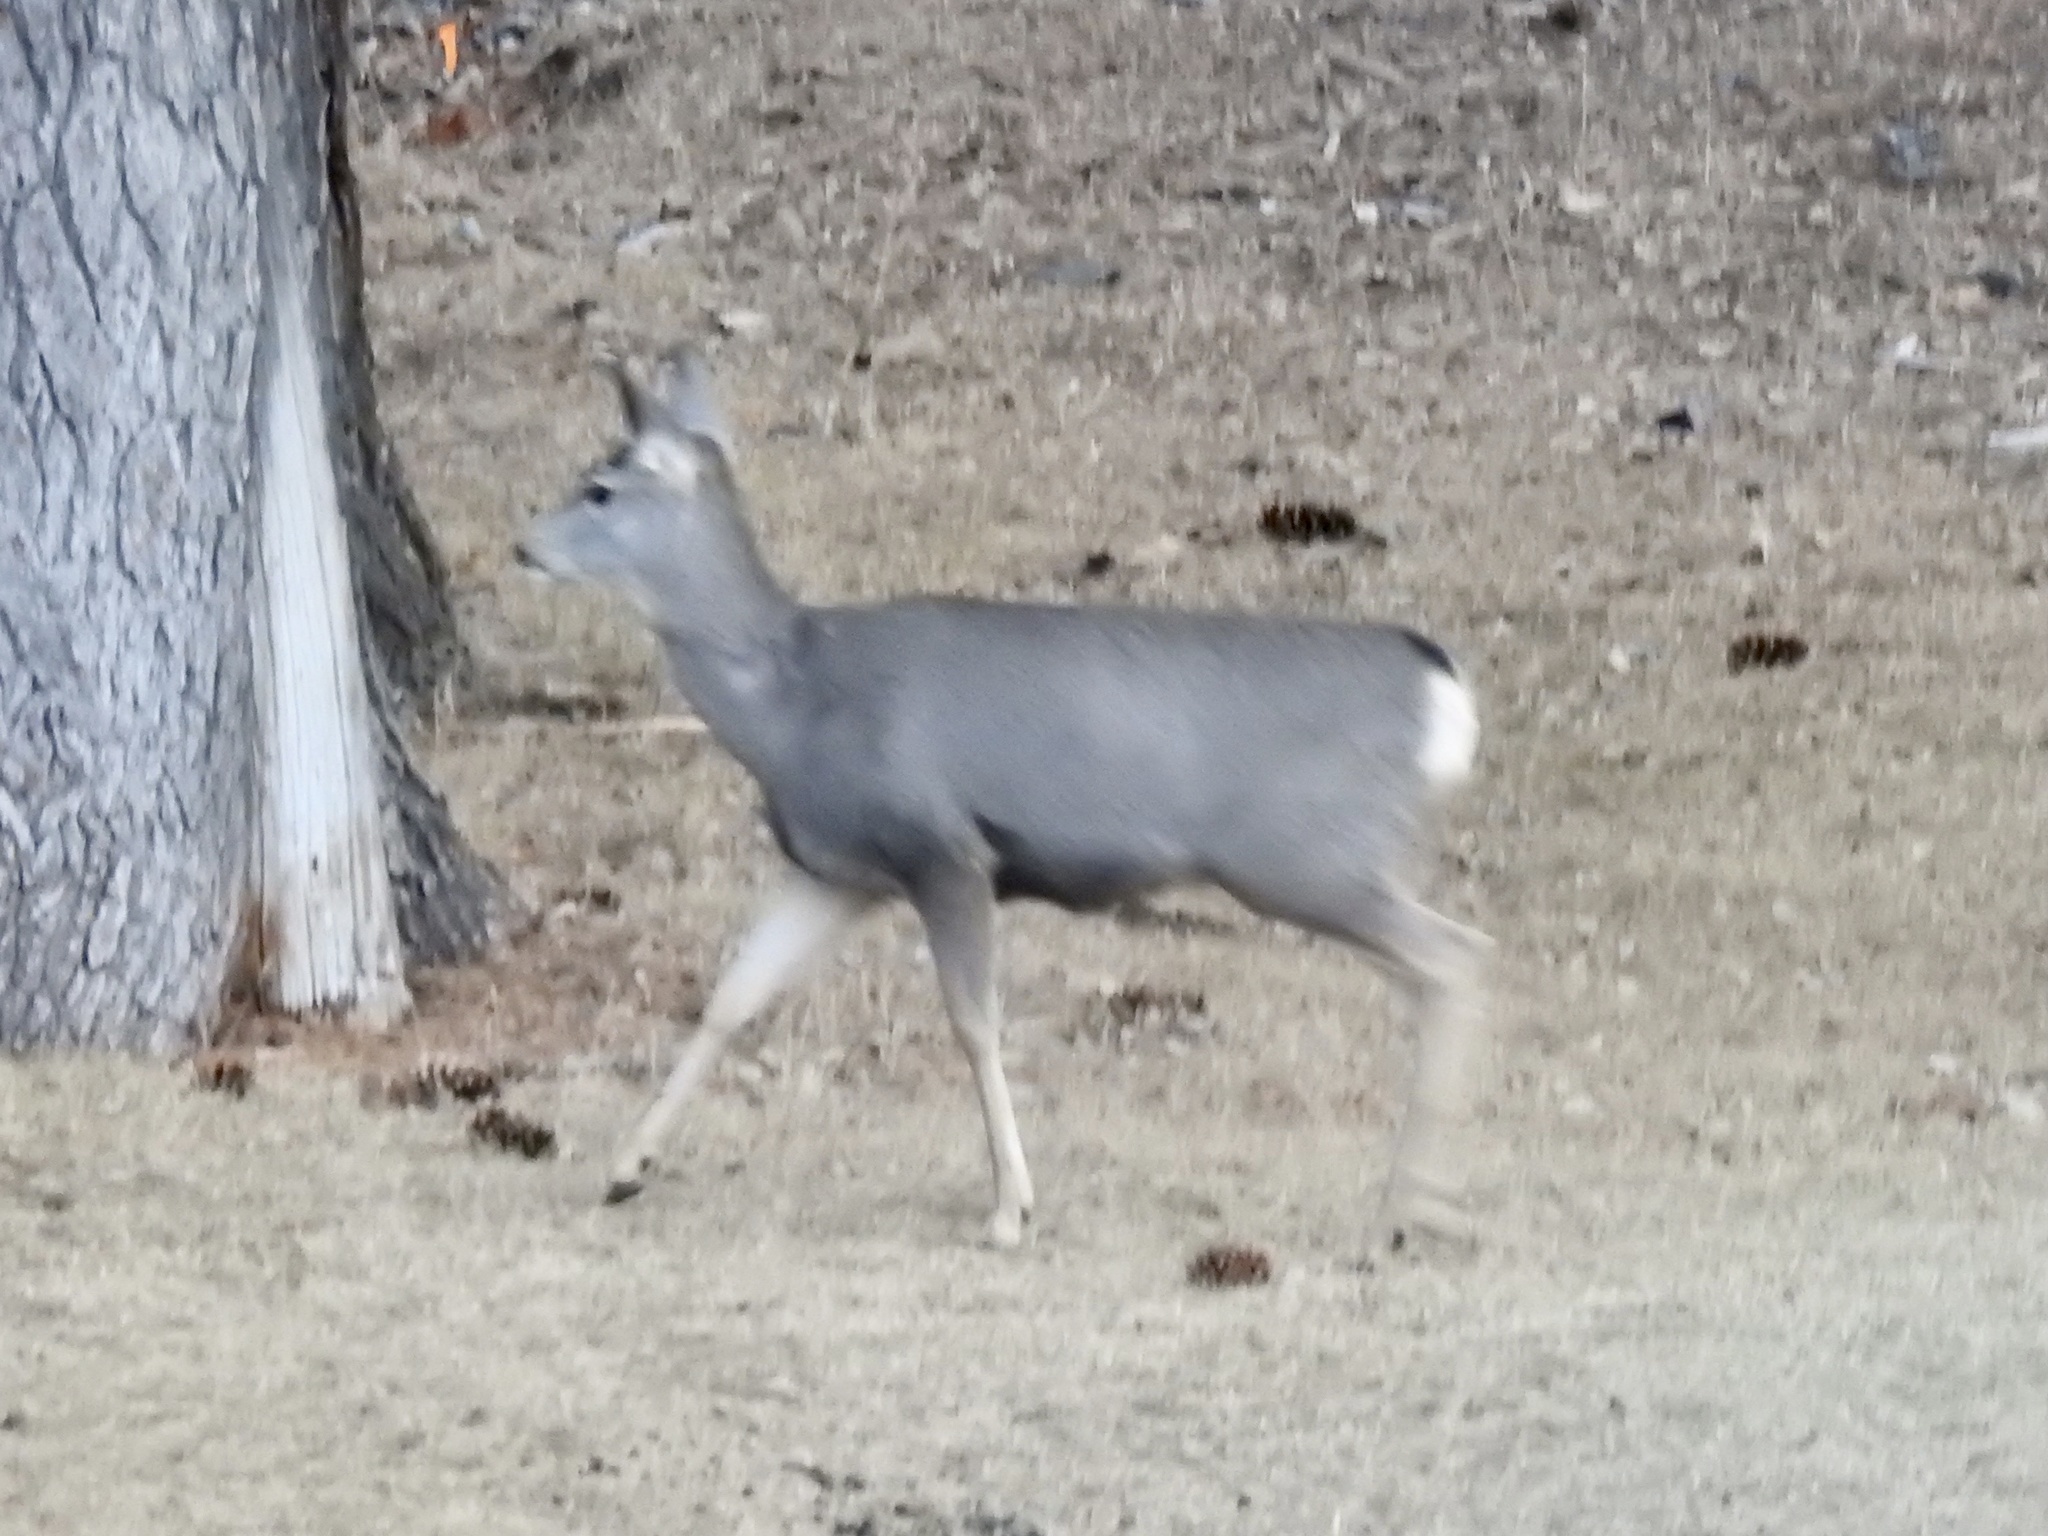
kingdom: Animalia
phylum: Chordata
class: Mammalia
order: Artiodactyla
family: Cervidae
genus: Odocoileus
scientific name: Odocoileus hemionus
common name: Mule deer
